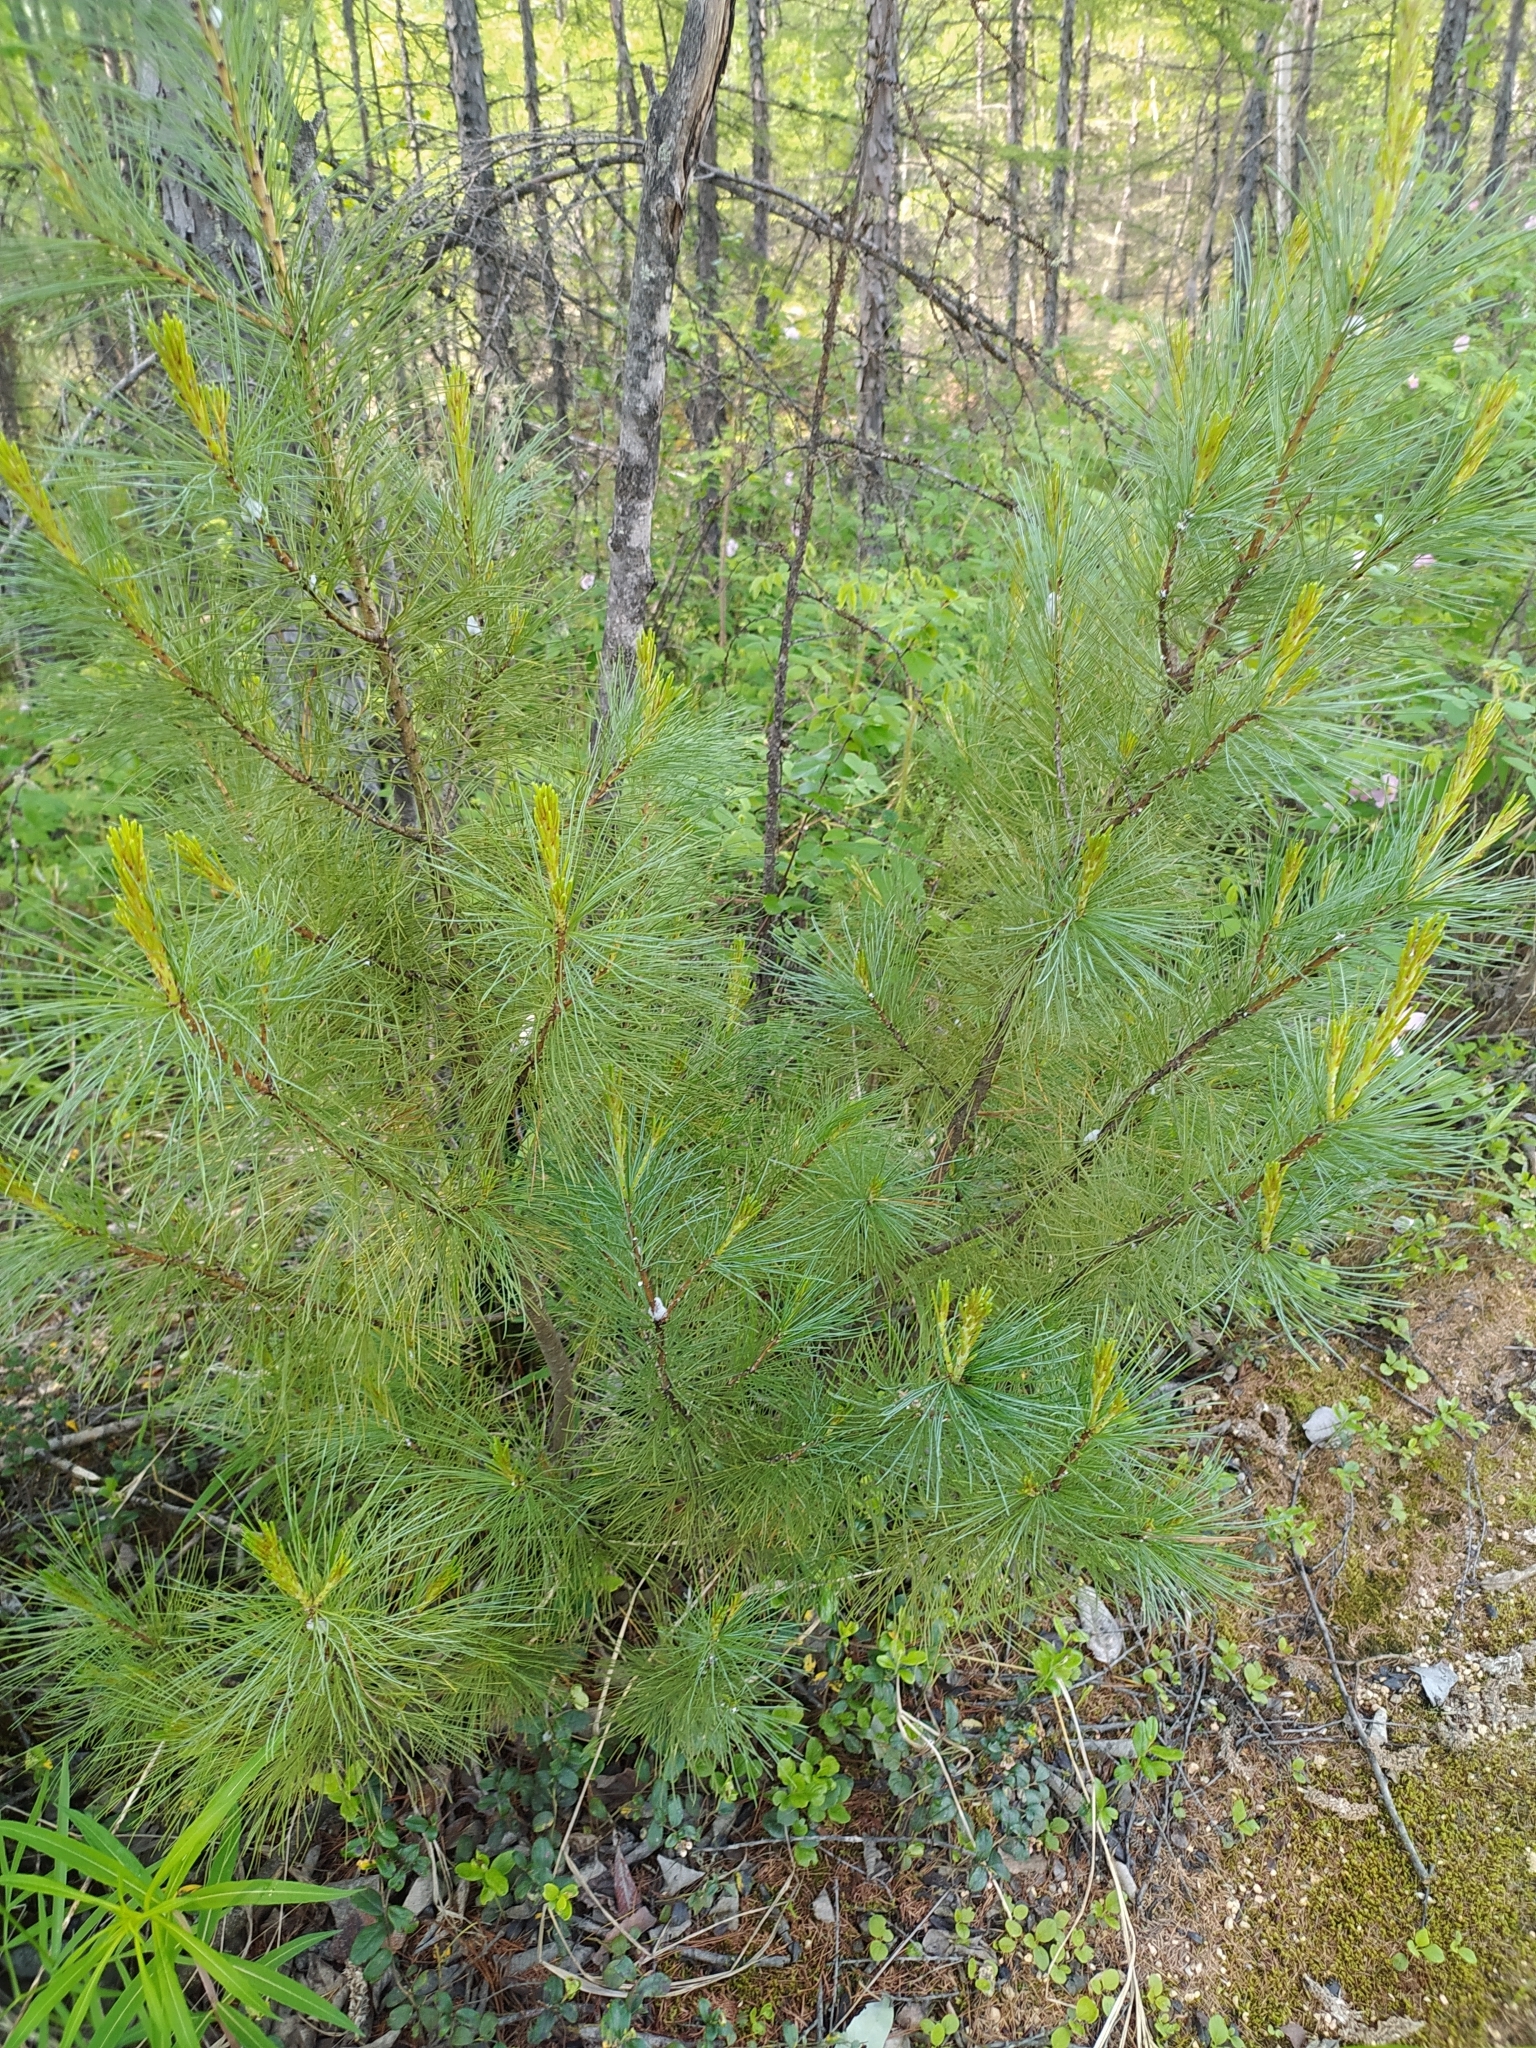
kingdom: Plantae
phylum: Tracheophyta
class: Pinopsida
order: Pinales
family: Pinaceae
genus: Pinus
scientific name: Pinus pumila
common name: Dwarf siberian pine
